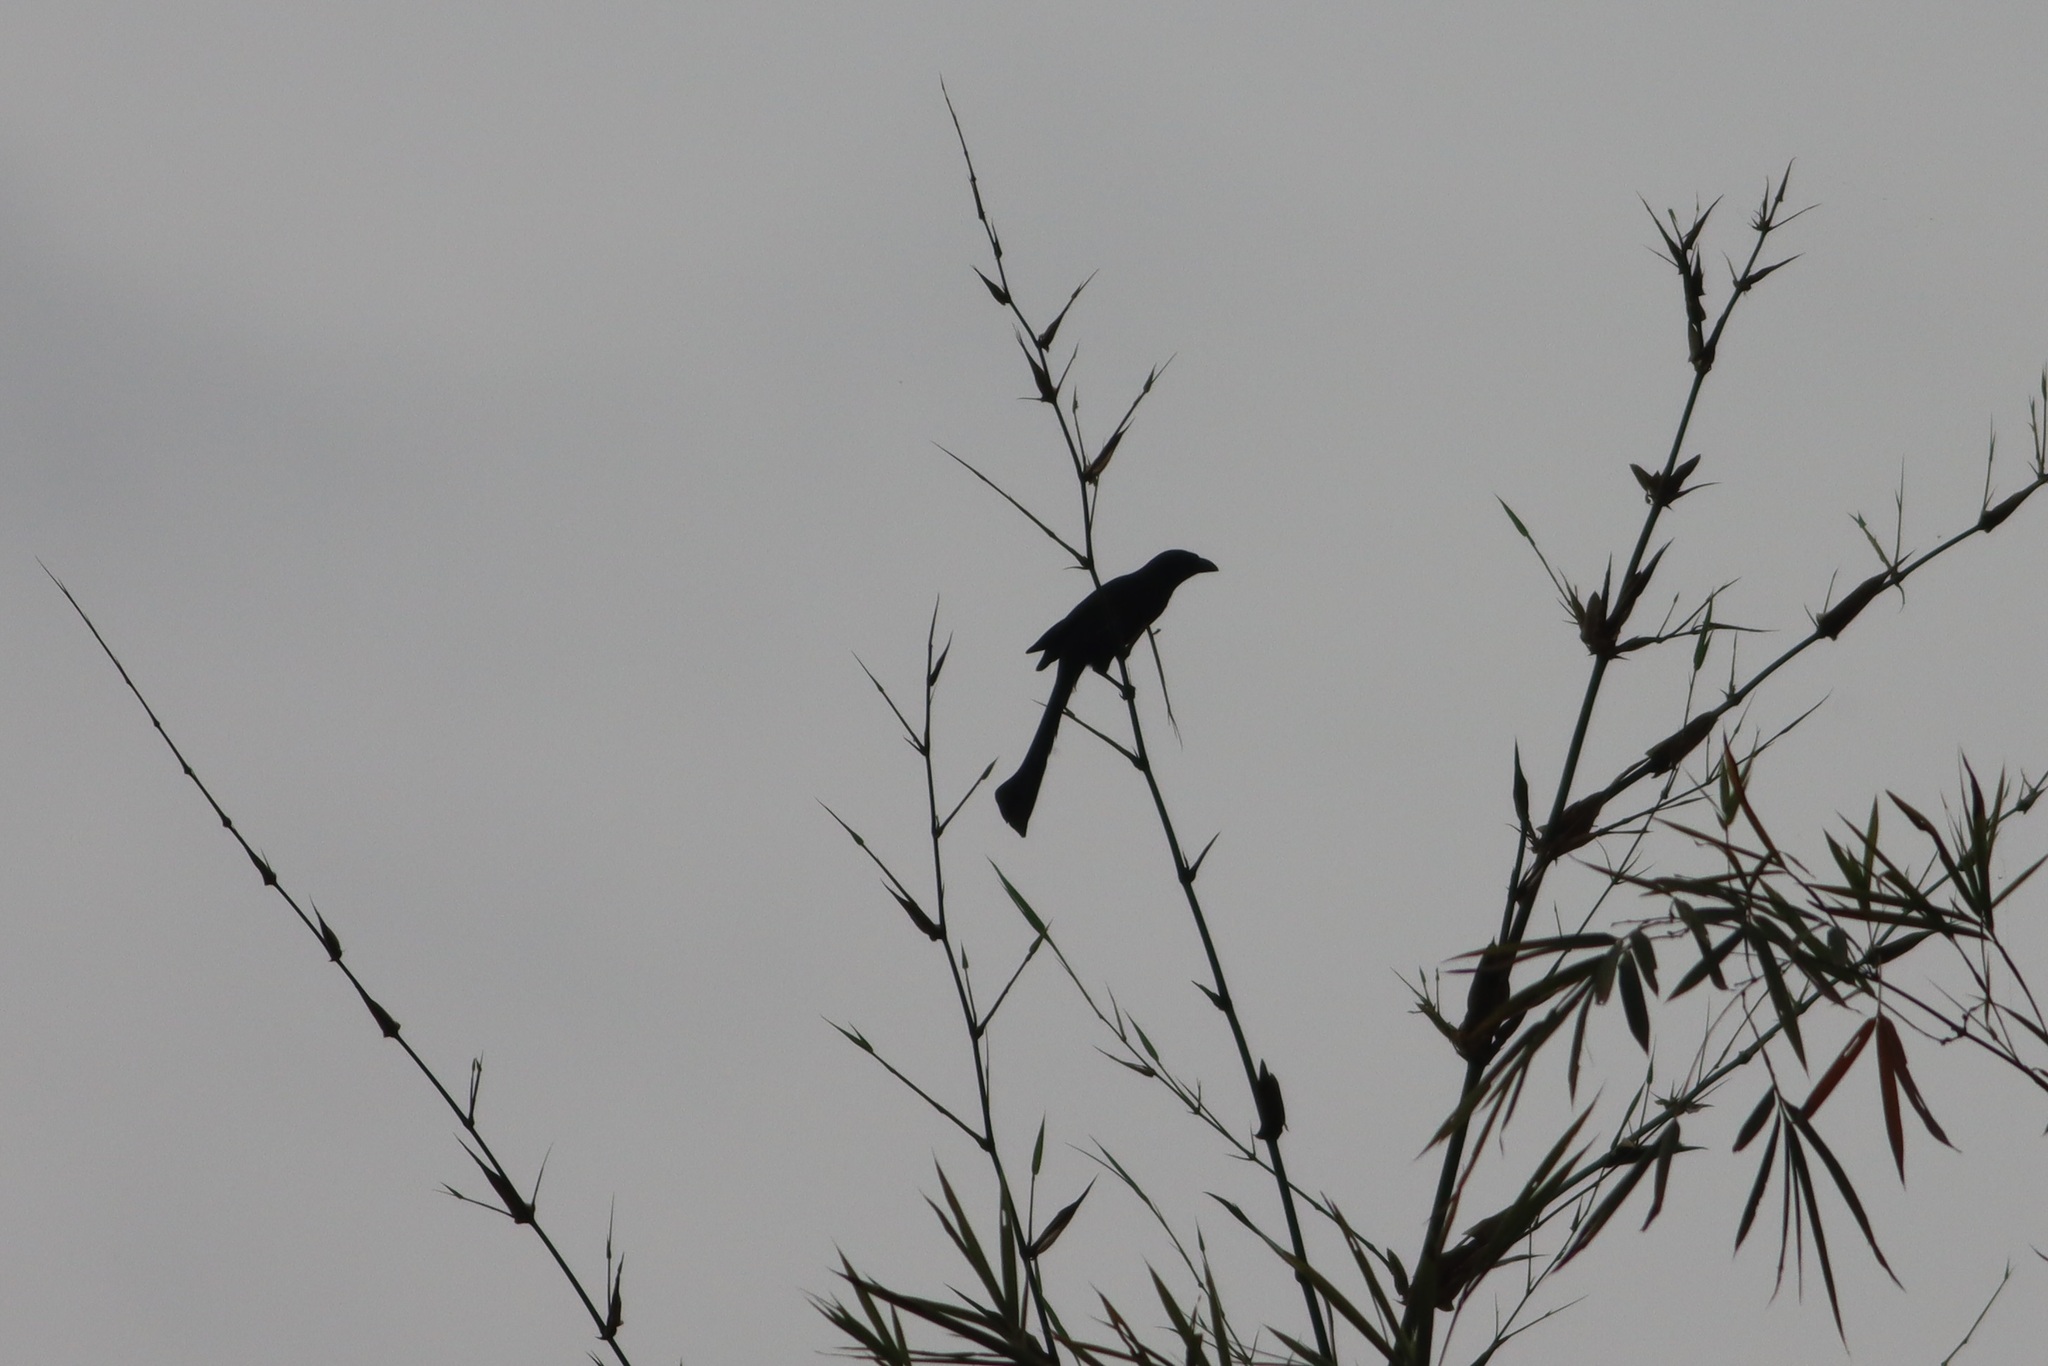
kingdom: Animalia
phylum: Chordata
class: Aves
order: Passeriformes
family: Corvidae
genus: Crypsirina
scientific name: Crypsirina temia
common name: Racket-tailed treepie
